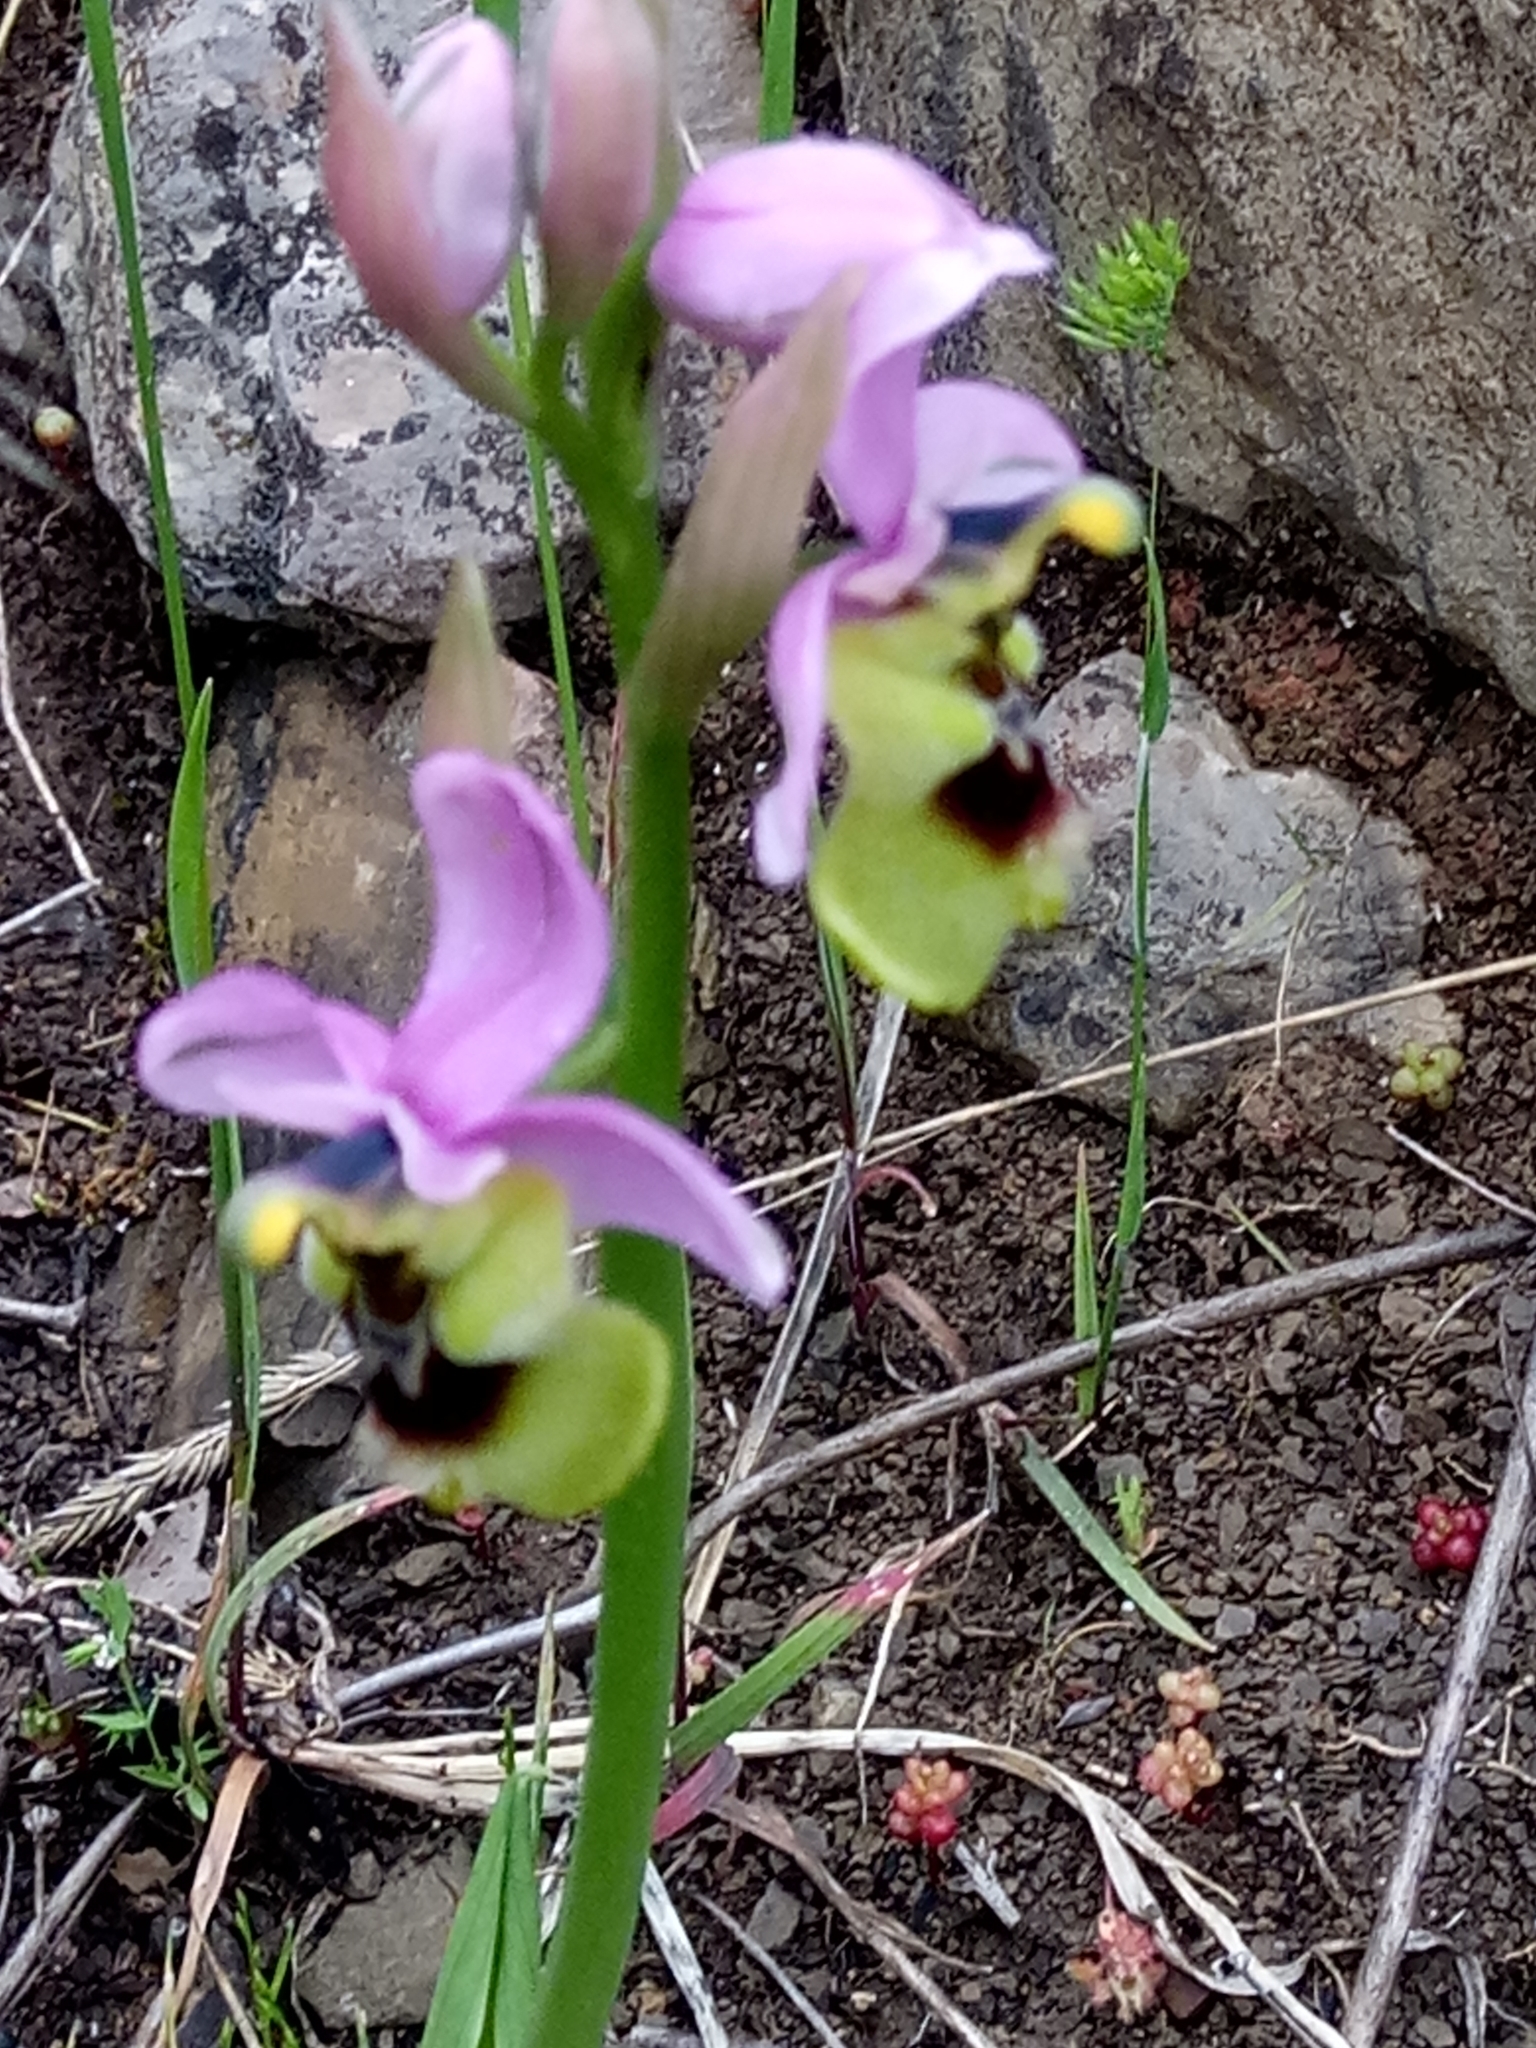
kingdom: Plantae
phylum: Tracheophyta
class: Liliopsida
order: Asparagales
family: Orchidaceae
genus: Ophrys
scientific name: Ophrys tenthredinifera
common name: Sawfly orchid
